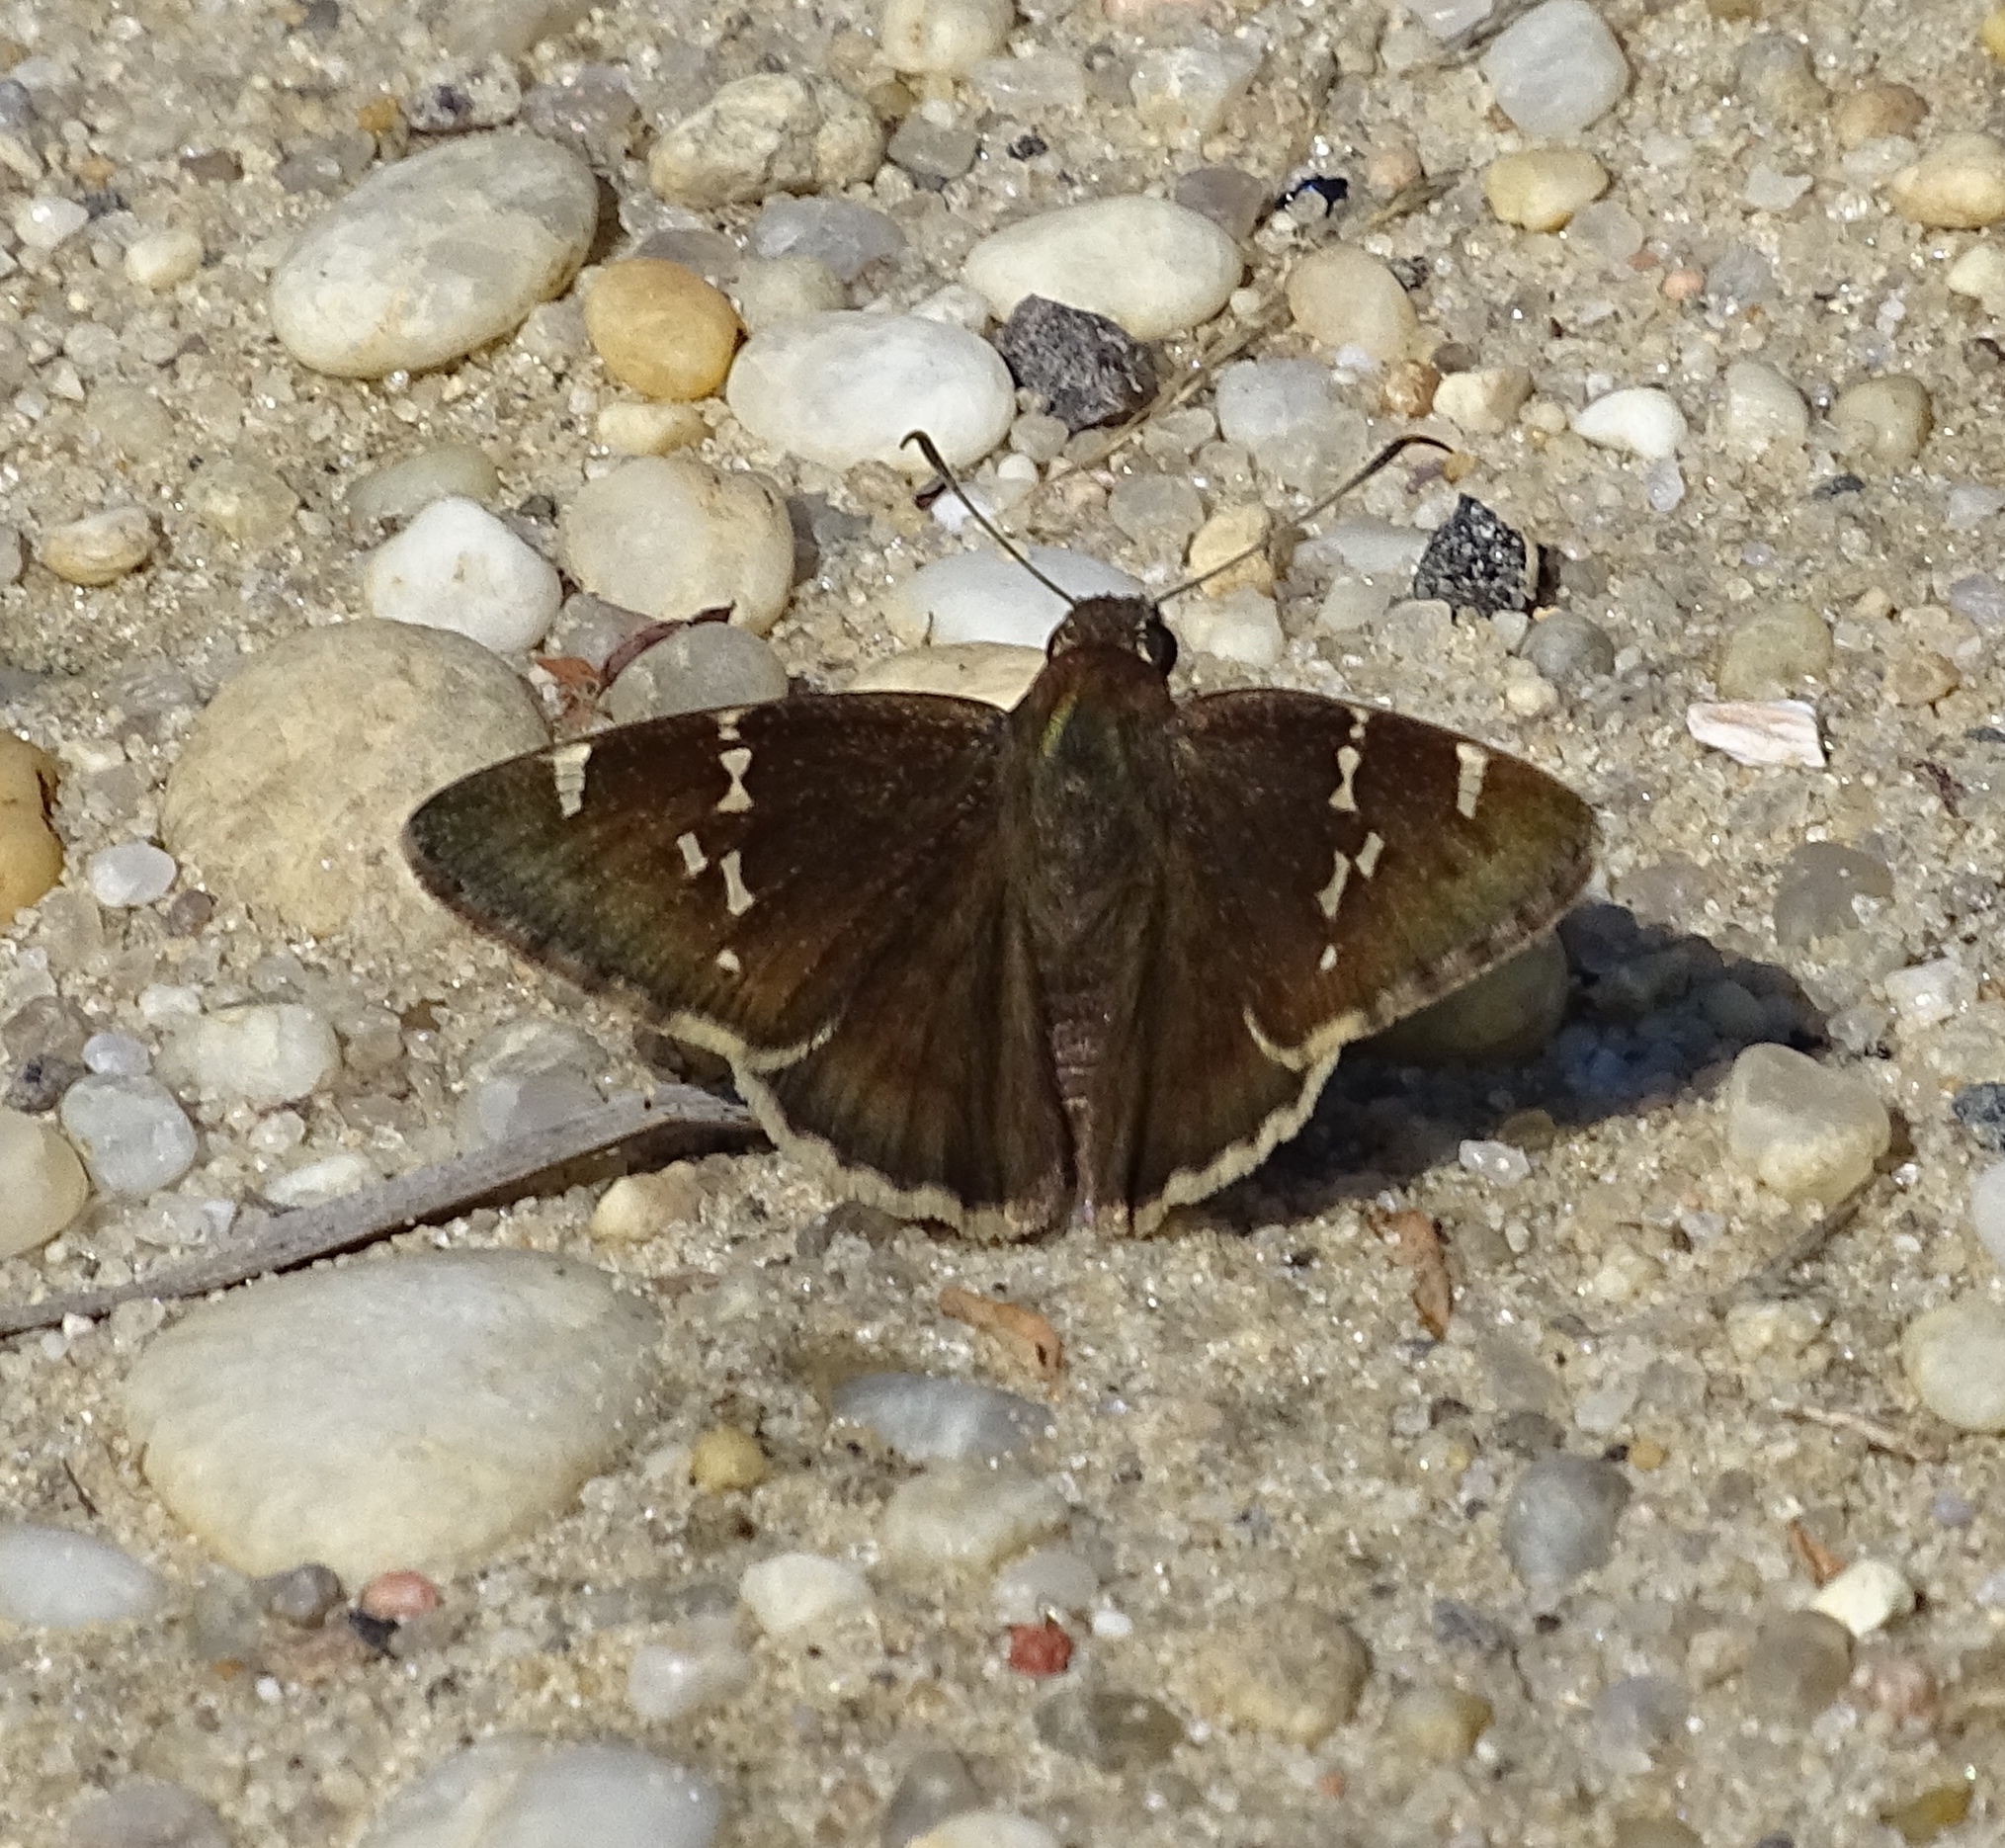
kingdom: Animalia
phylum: Arthropoda
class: Insecta
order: Lepidoptera
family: Hesperiidae
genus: Thorybes
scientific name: Thorybes daunus
